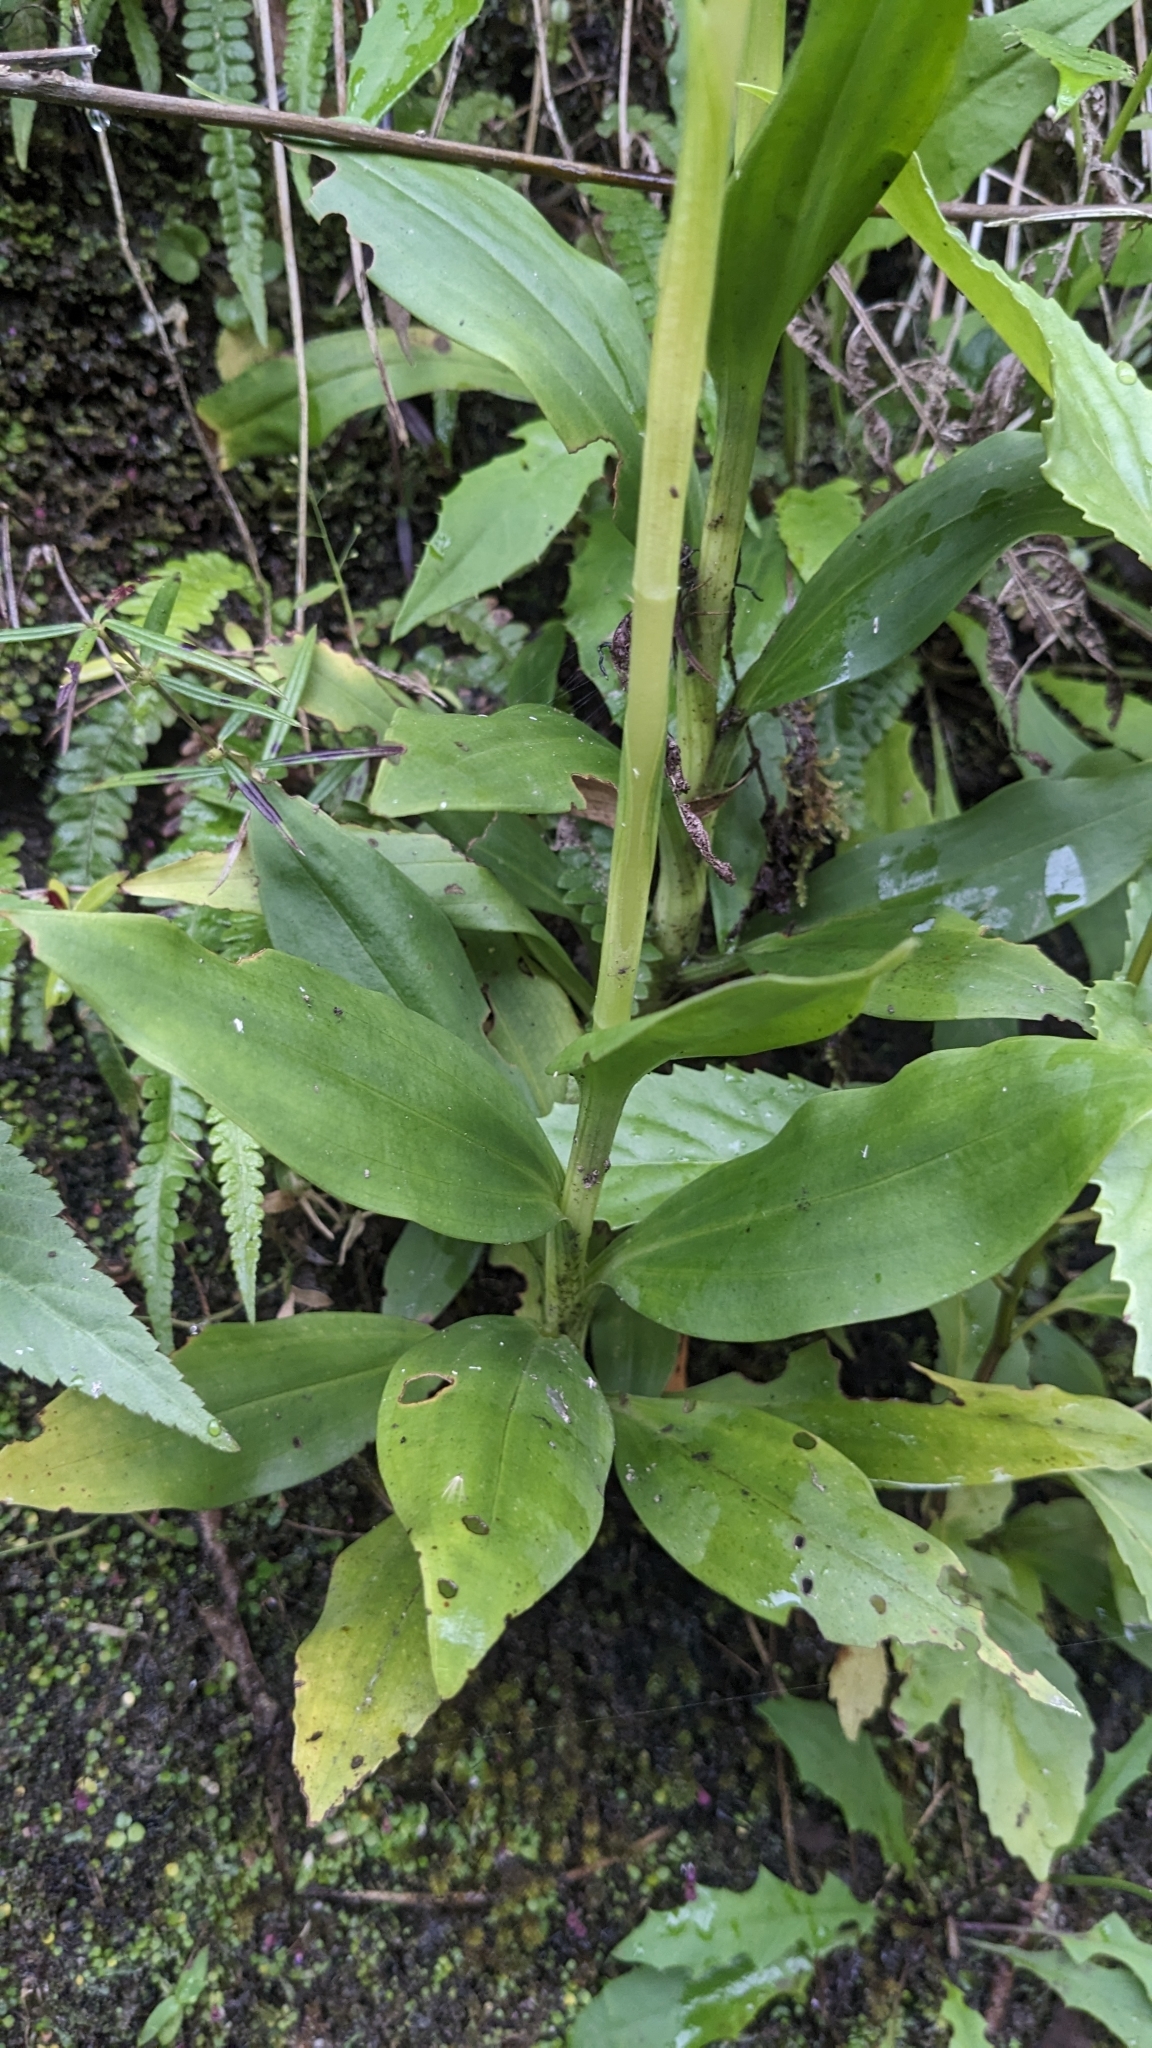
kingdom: Plantae
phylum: Tracheophyta
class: Liliopsida
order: Asparagales
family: Orchidaceae
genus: Goodyera
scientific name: Goodyera procera
